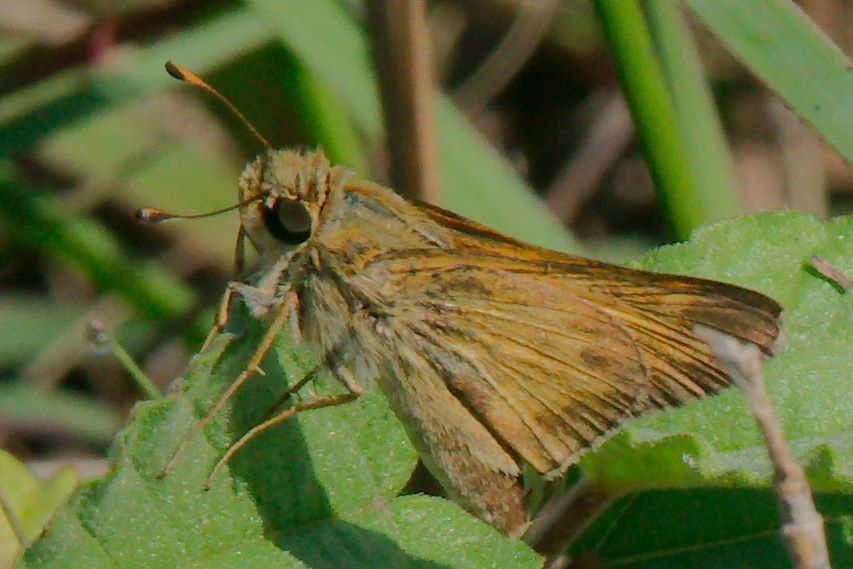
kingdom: Animalia
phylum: Arthropoda
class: Insecta
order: Lepidoptera
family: Hesperiidae
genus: Atalopedes
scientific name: Atalopedes
